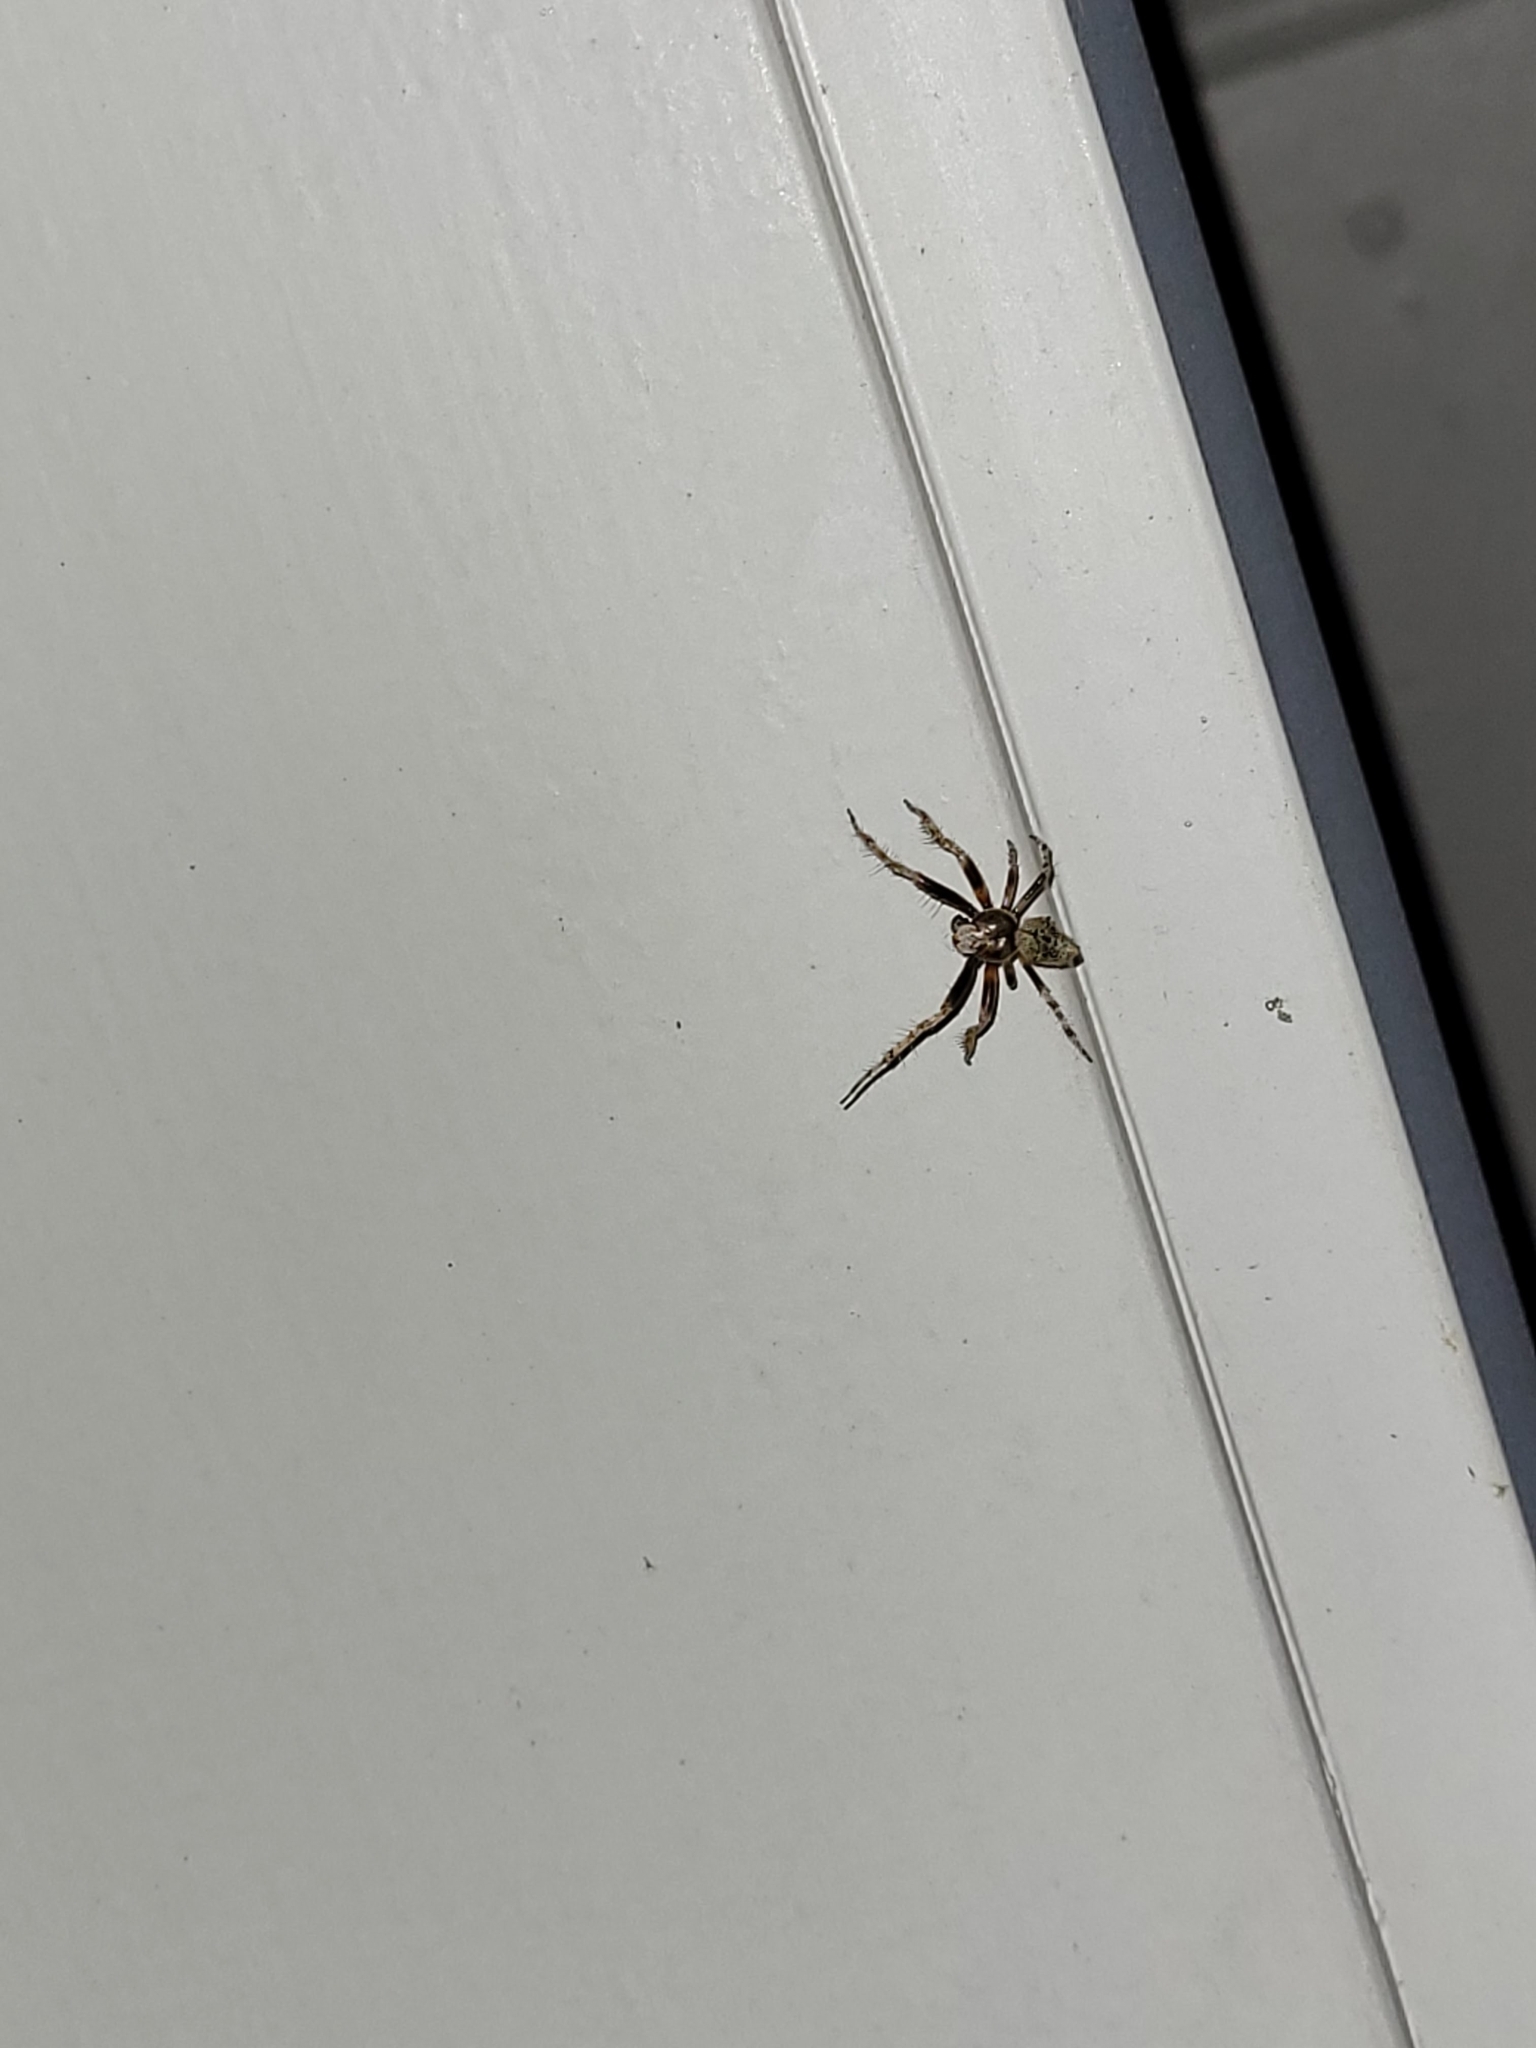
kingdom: Animalia
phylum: Arthropoda
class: Arachnida
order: Araneae
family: Araneidae
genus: Eriophora
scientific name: Eriophora pustulosa
